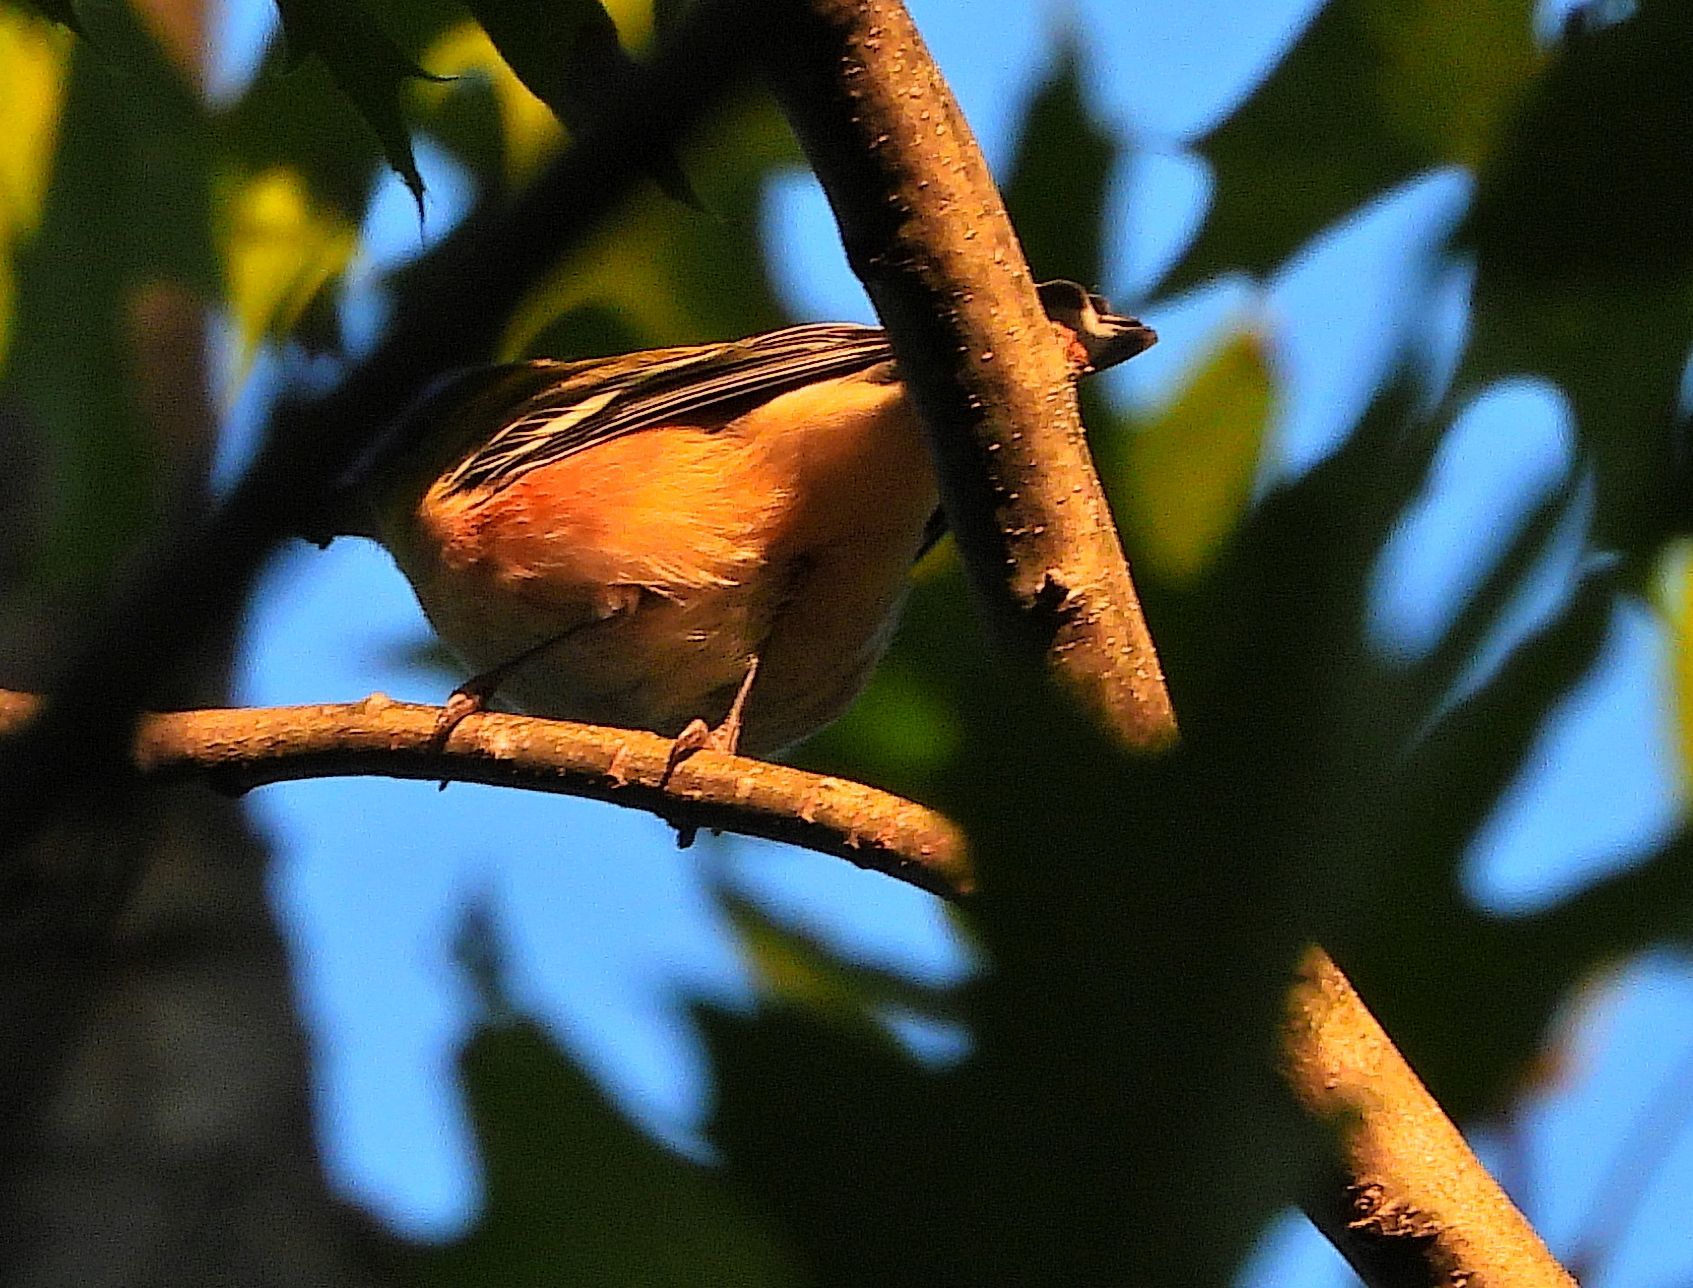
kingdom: Animalia
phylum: Chordata
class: Aves
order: Passeriformes
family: Parulidae
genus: Setophaga
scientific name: Setophaga castanea
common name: Bay-breasted warbler
